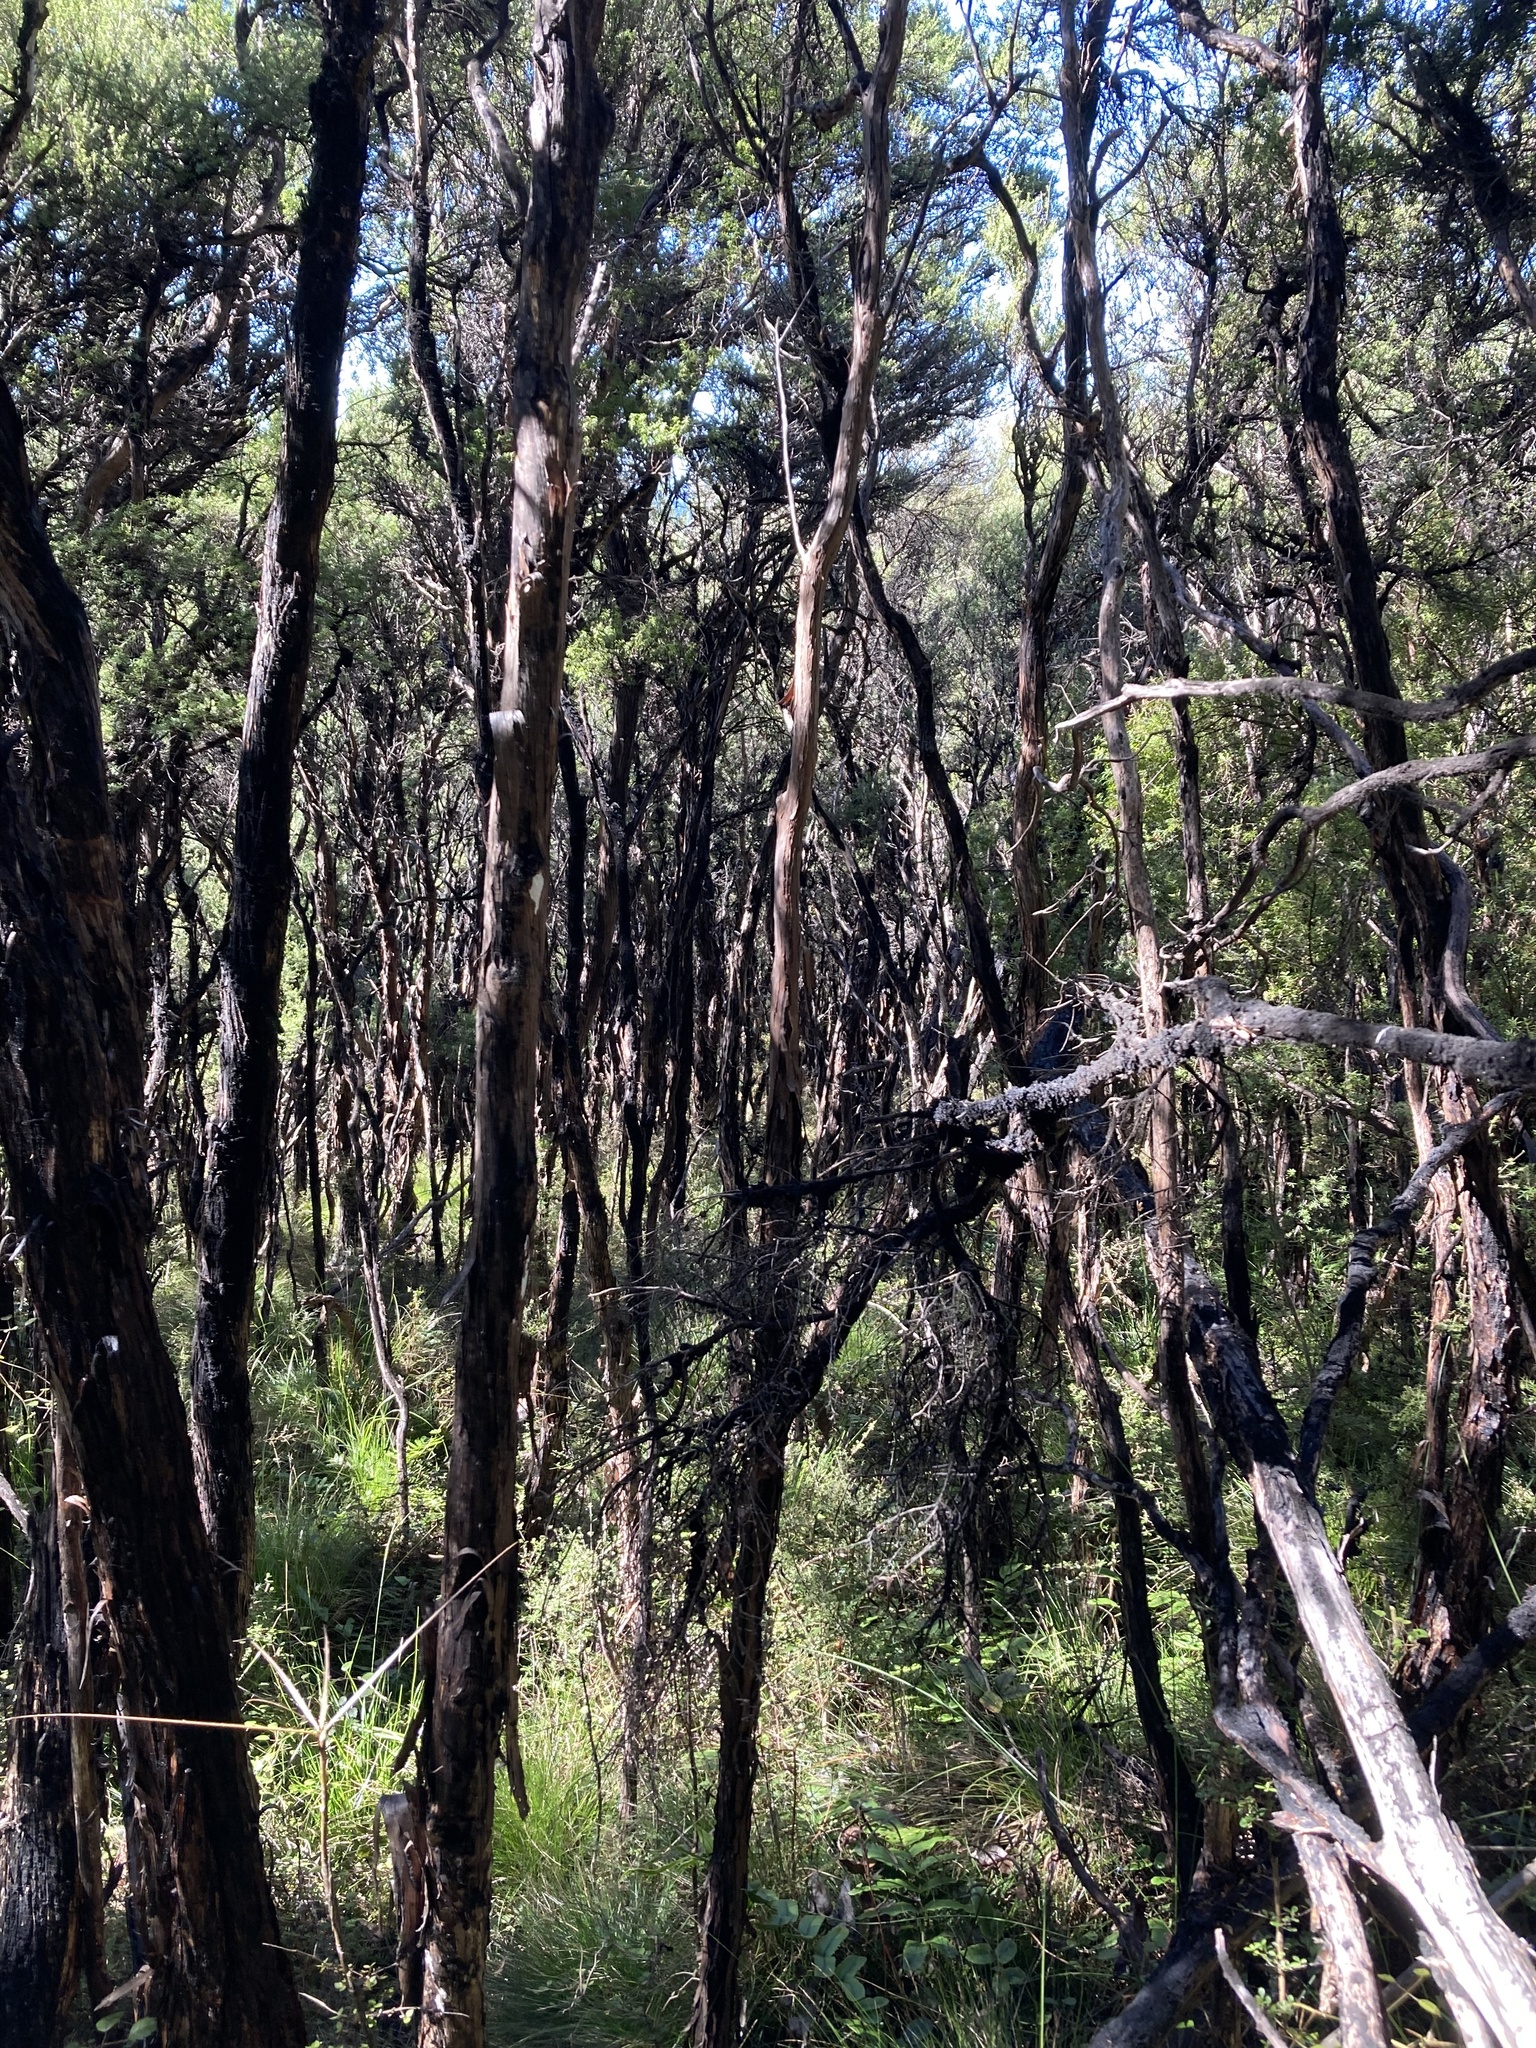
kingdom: Plantae
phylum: Tracheophyta
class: Magnoliopsida
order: Myrtales
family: Myrtaceae
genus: Leptospermum
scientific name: Leptospermum scoparium
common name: Broom tea-tree
